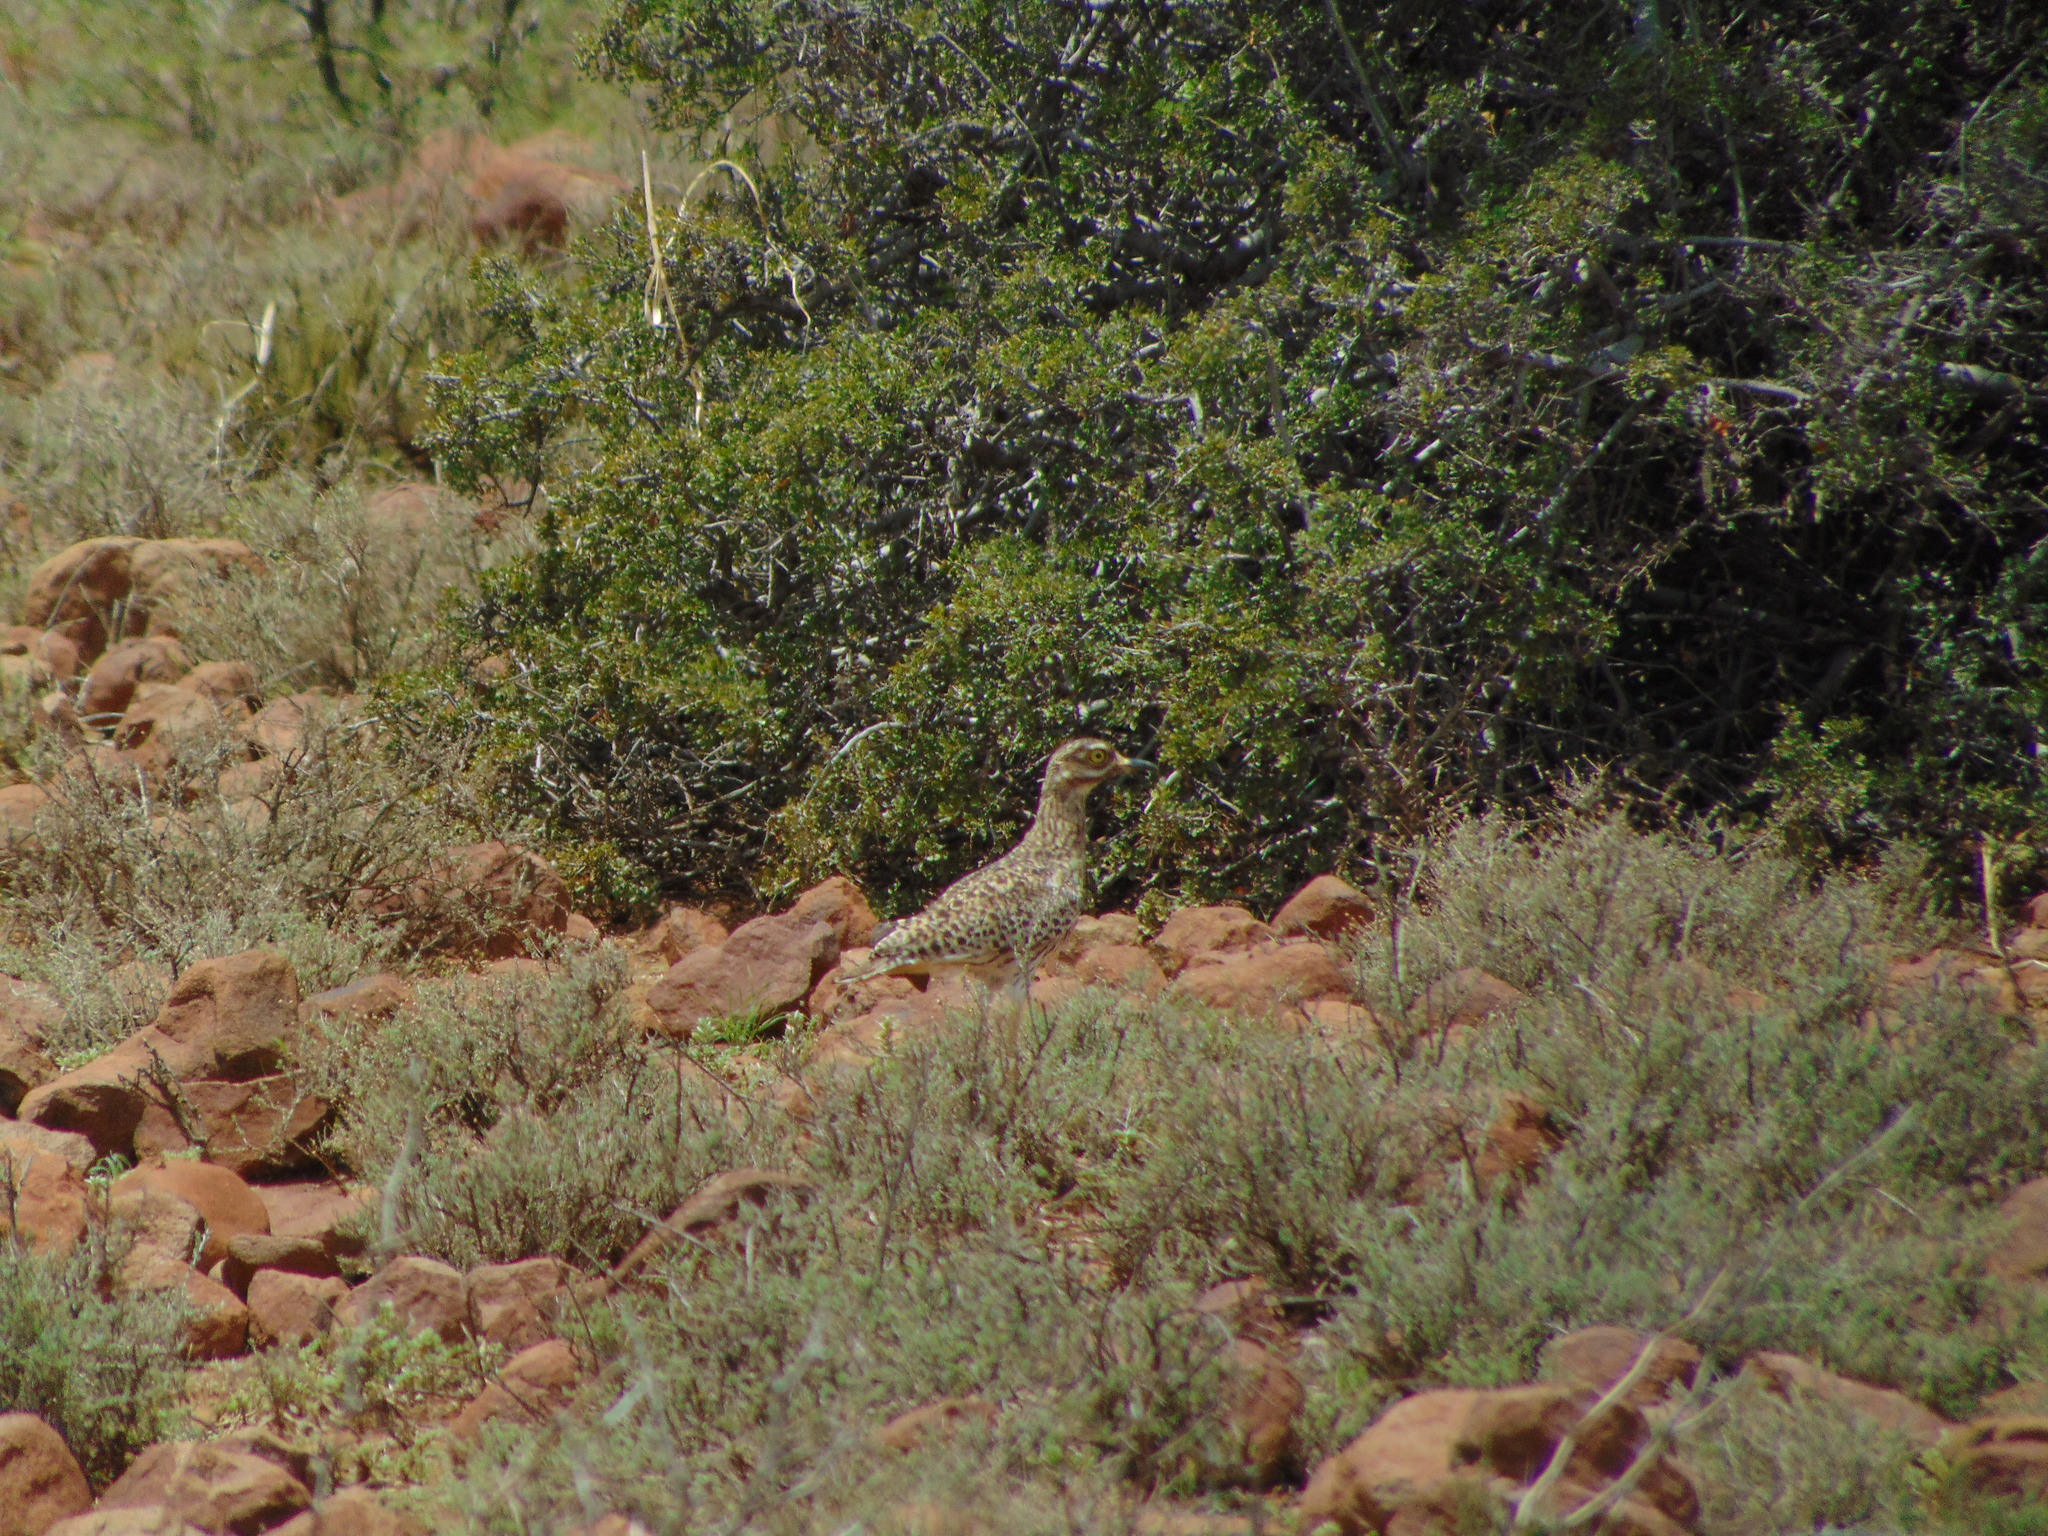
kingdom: Animalia
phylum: Chordata
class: Aves
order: Charadriiformes
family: Burhinidae
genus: Burhinus
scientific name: Burhinus capensis
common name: Spotted thick-knee
